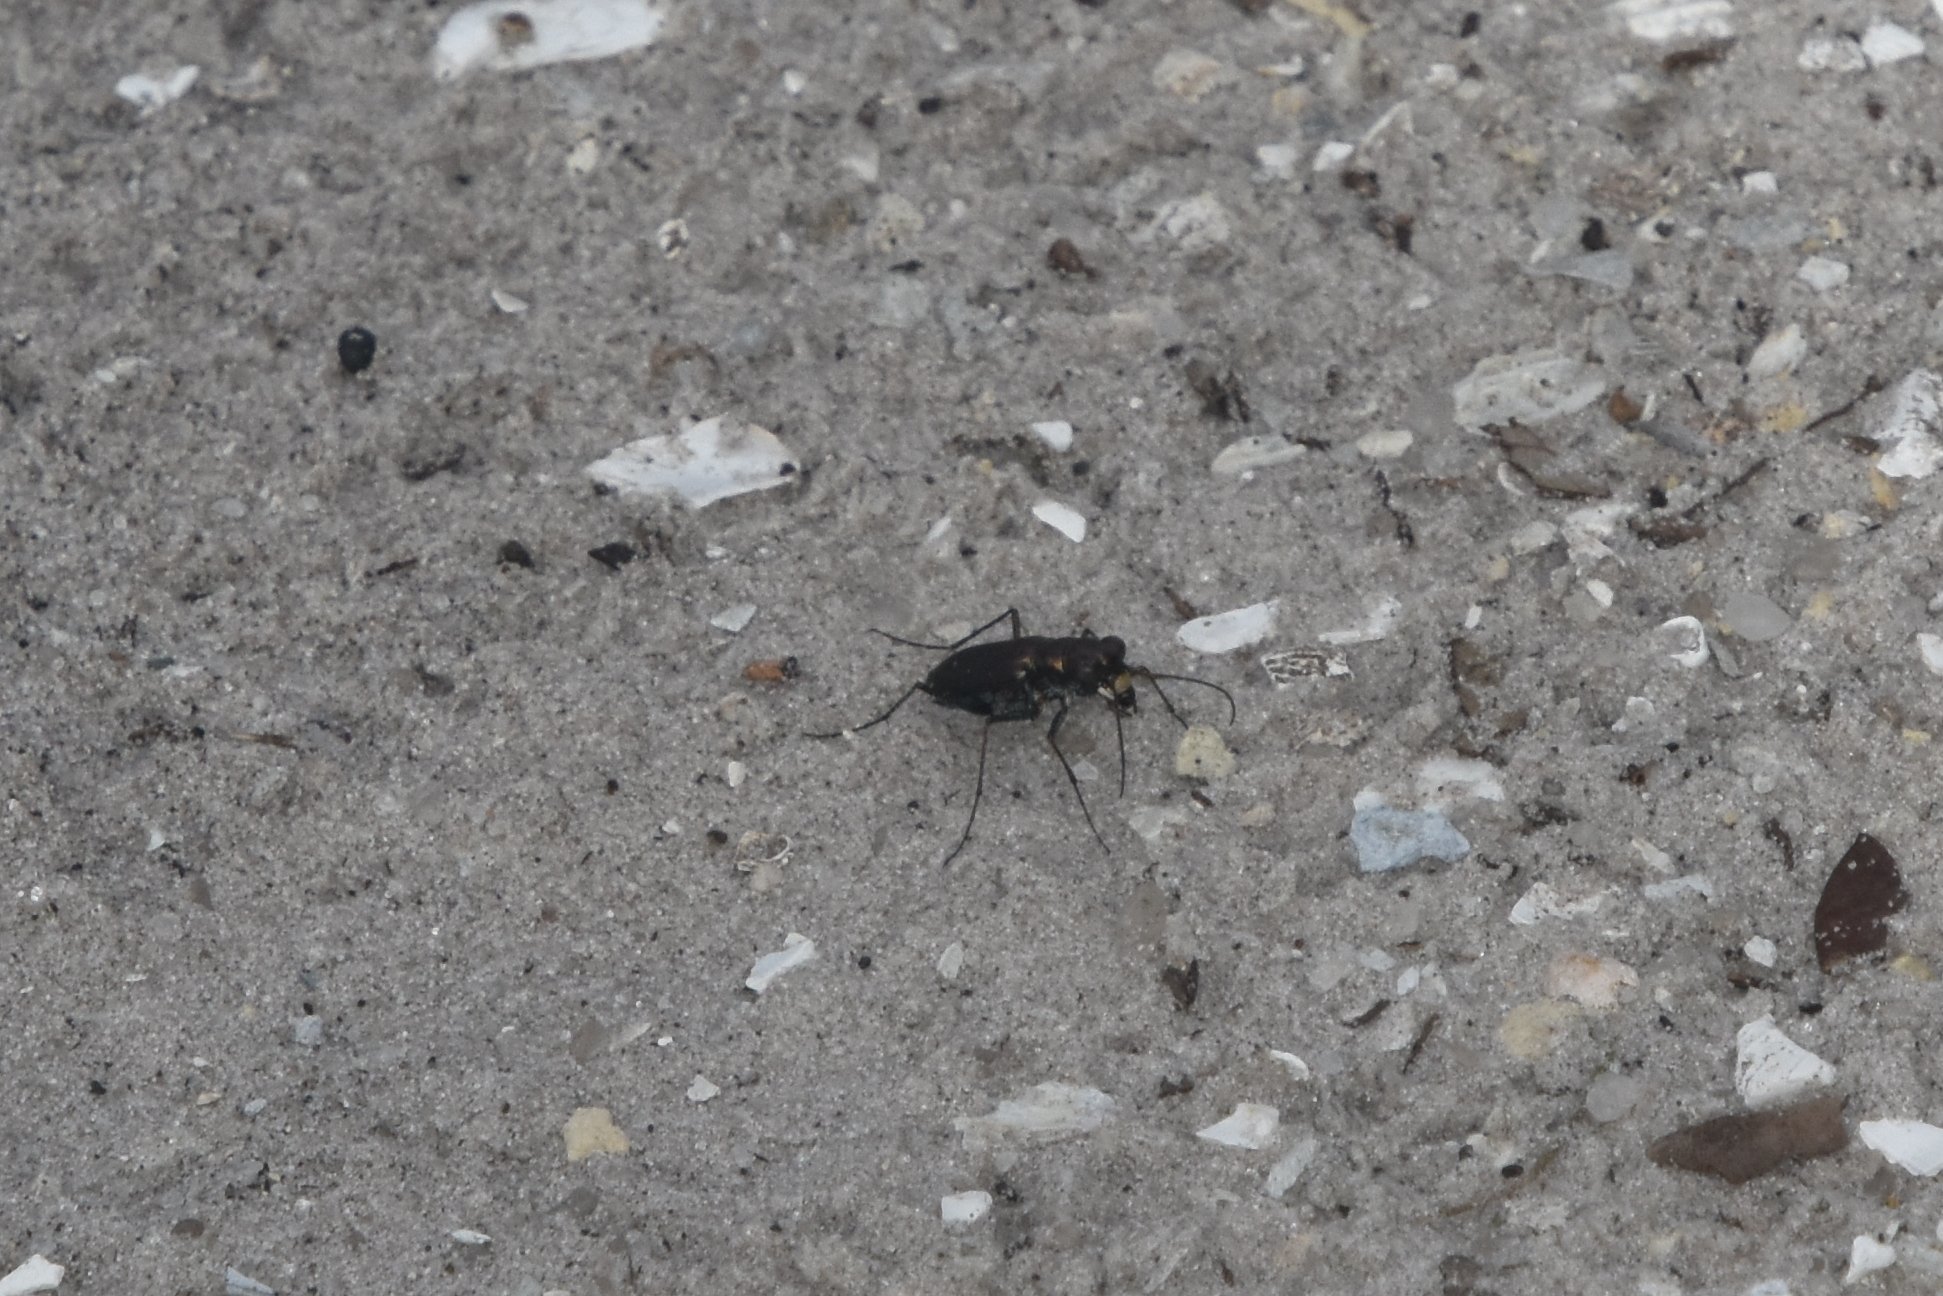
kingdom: Animalia
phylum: Arthropoda
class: Insecta
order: Coleoptera
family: Carabidae
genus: Cicindela
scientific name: Cicindela punctulata
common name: Punctured tiger beetle
